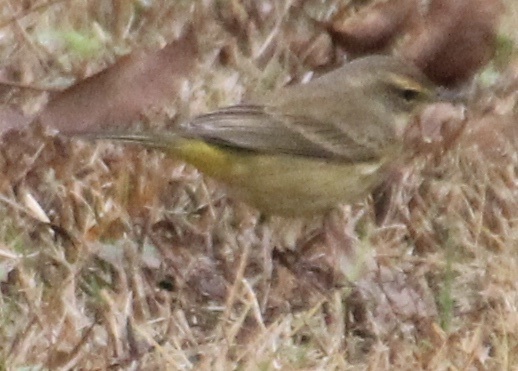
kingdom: Animalia
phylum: Chordata
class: Aves
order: Passeriformes
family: Parulidae
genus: Setophaga
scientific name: Setophaga palmarum
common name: Palm warbler
